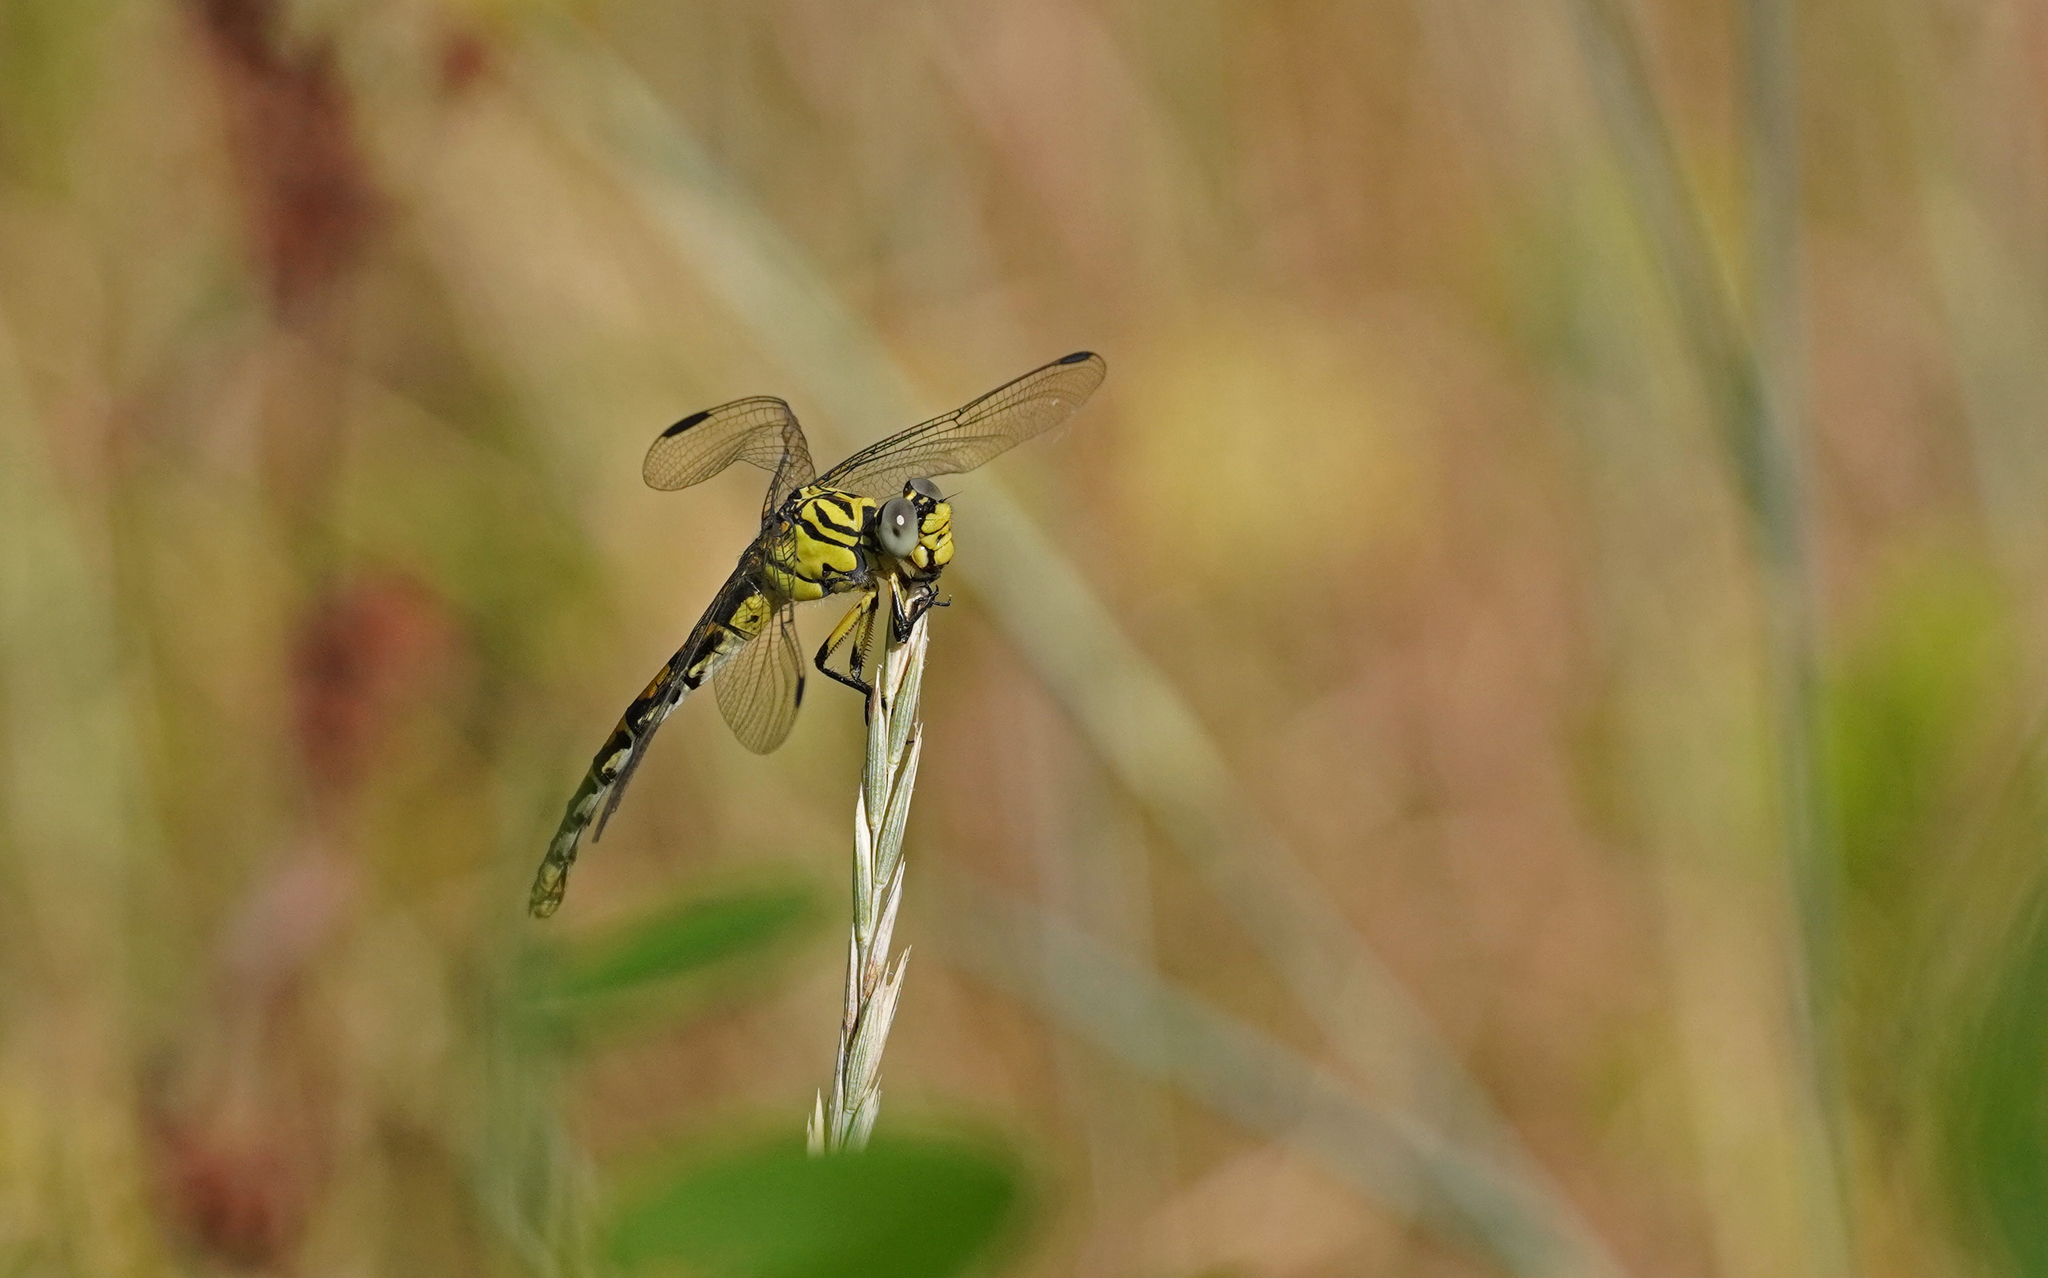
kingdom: Animalia
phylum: Arthropoda
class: Insecta
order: Odonata
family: Gomphidae
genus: Onychogomphus
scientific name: Onychogomphus forcipatus
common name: Small pincertail
